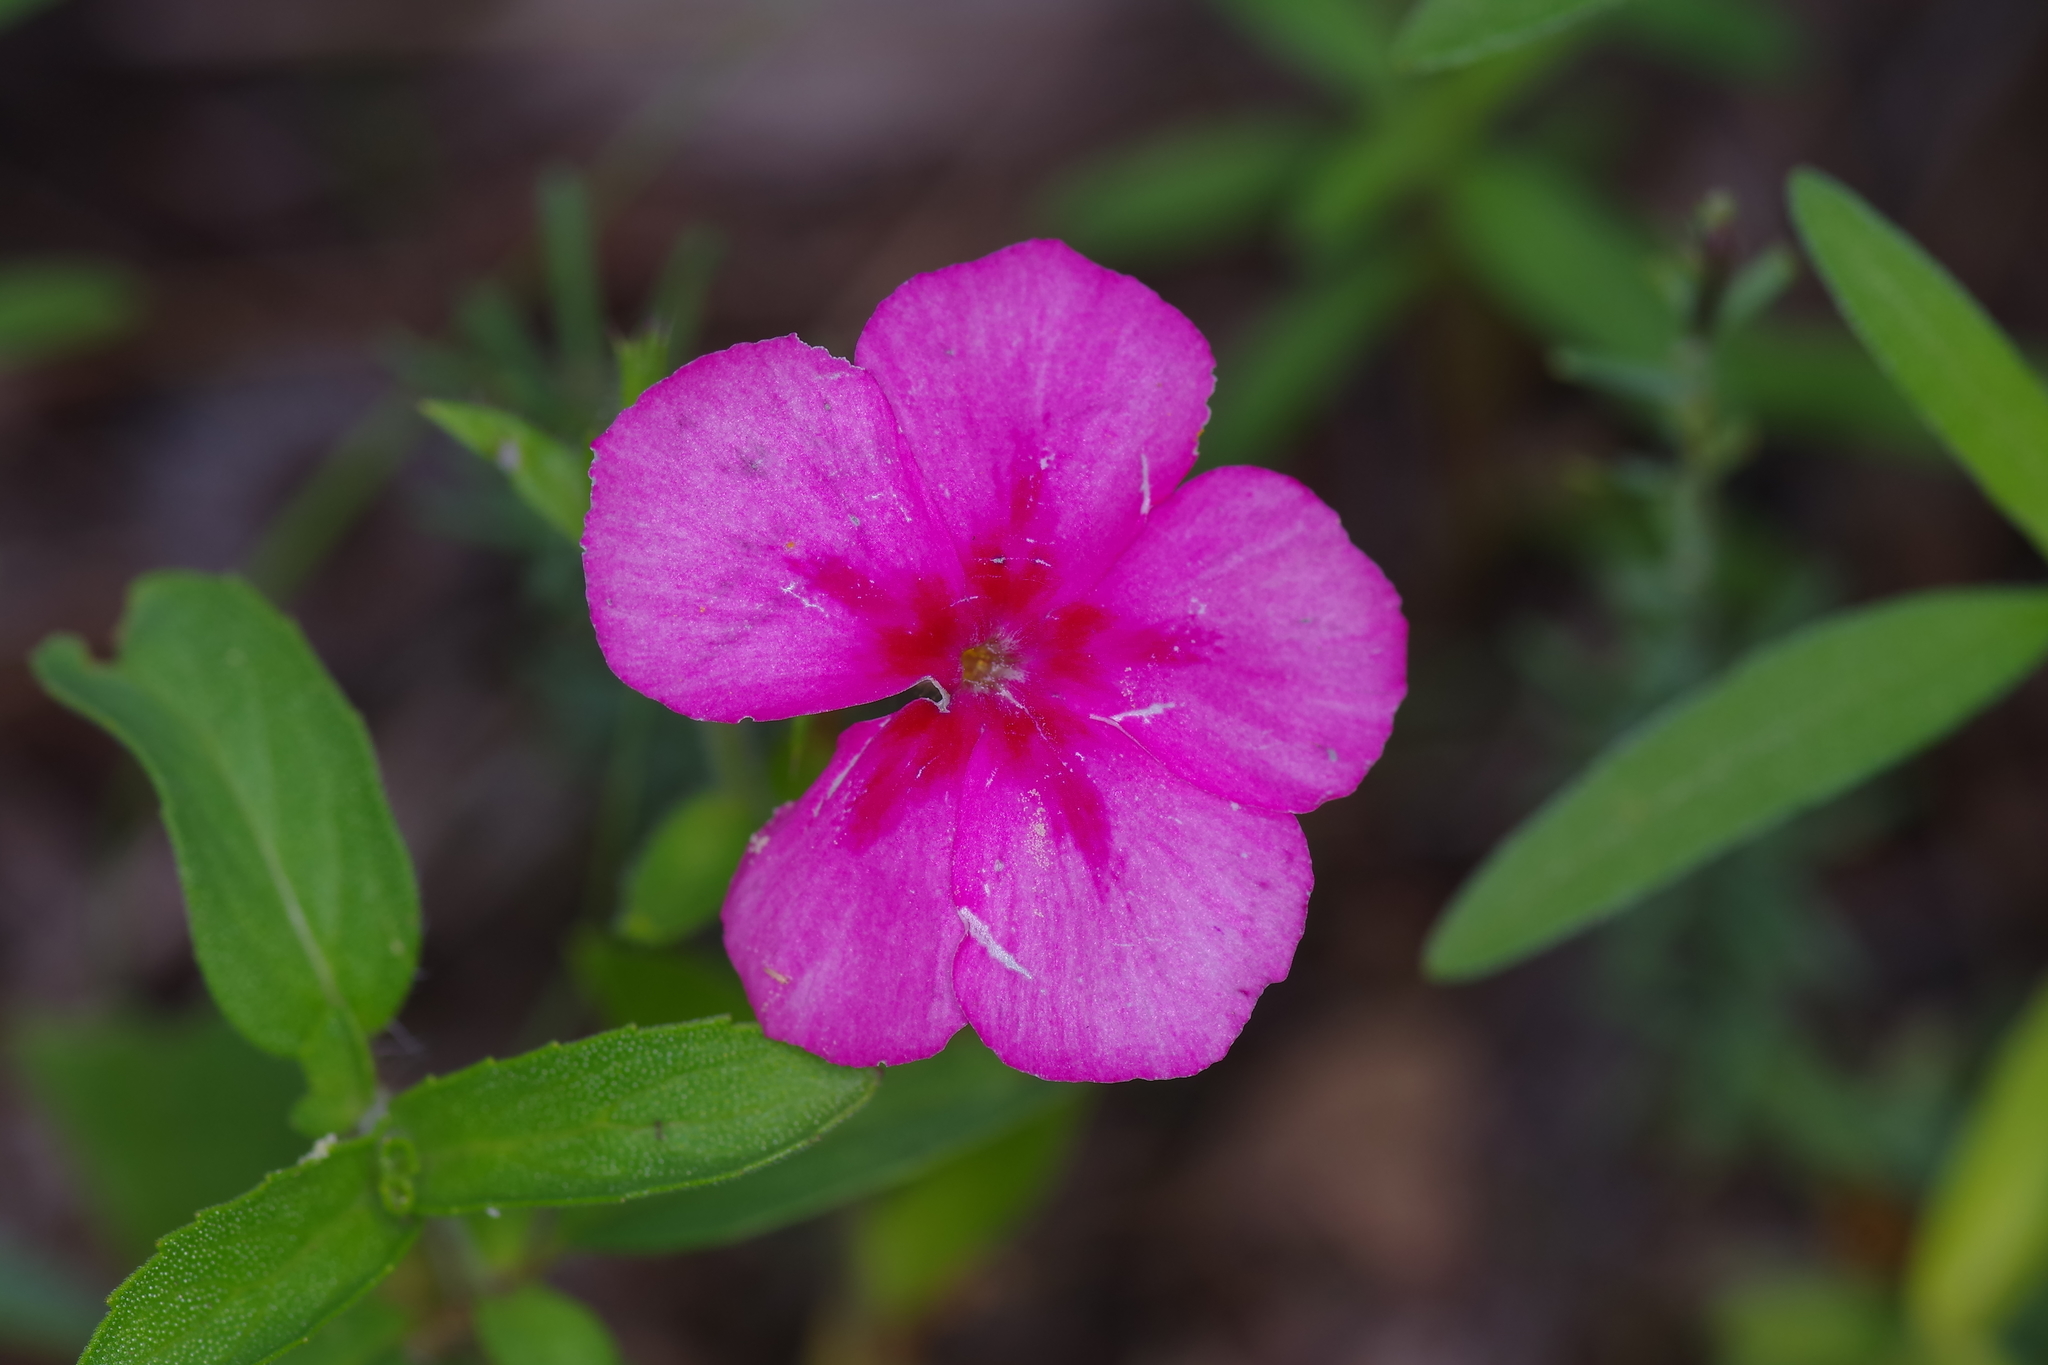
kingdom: Plantae
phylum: Tracheophyta
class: Magnoliopsida
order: Ericales
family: Polemoniaceae
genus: Phlox
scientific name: Phlox drummondii
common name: Drummond's phlox
